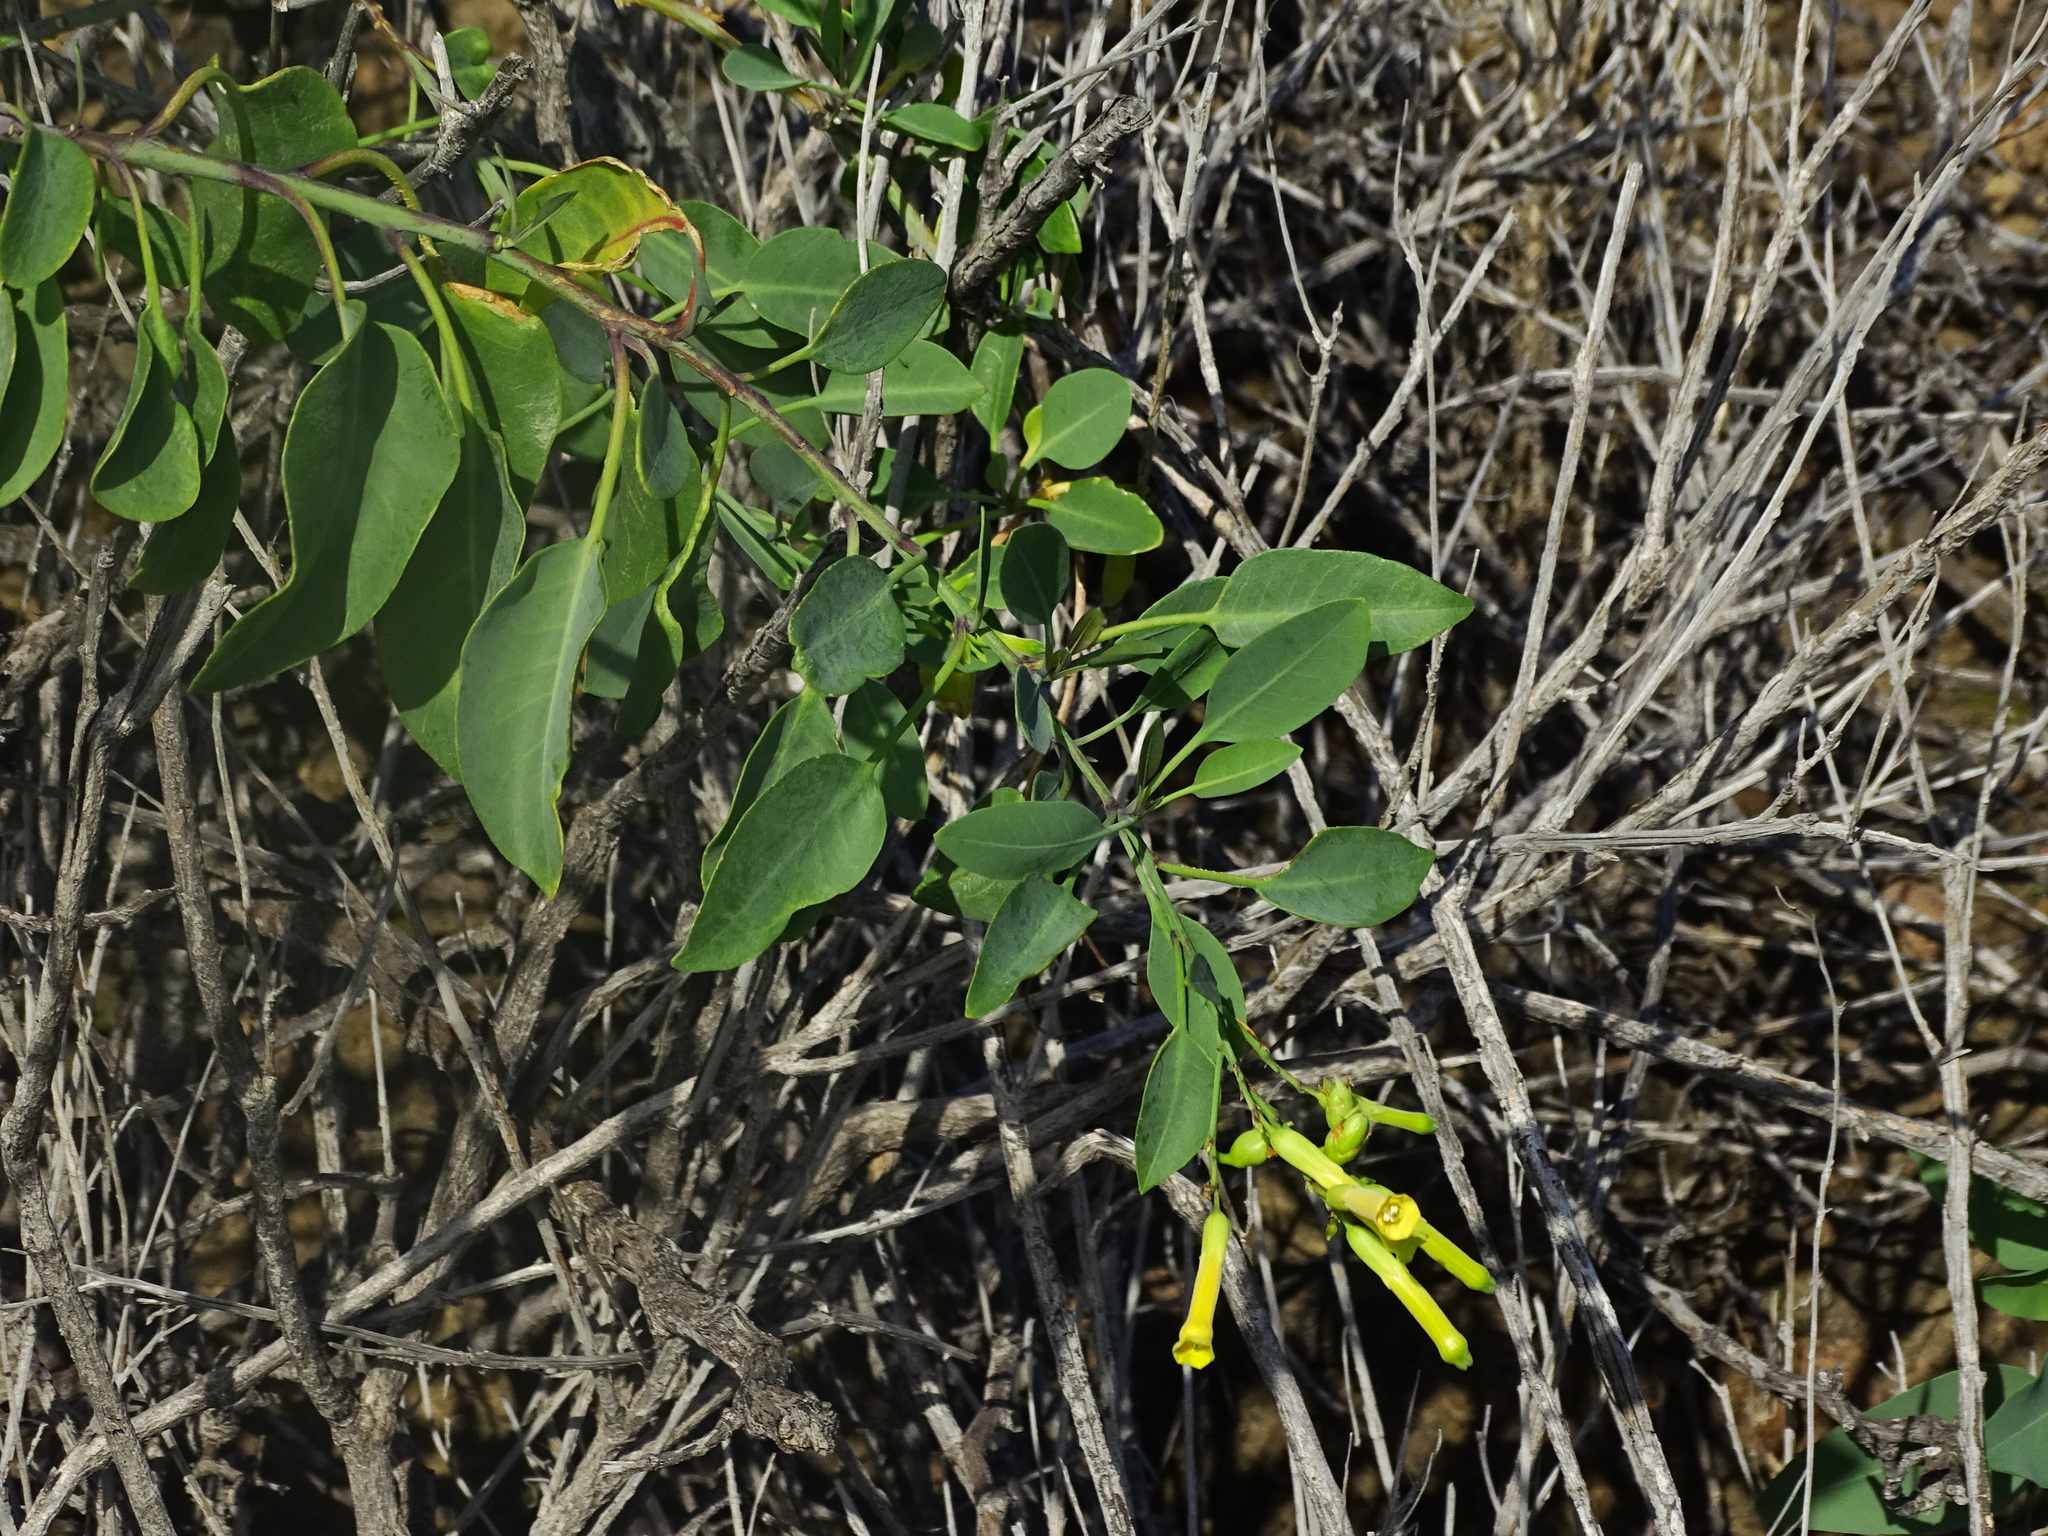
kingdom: Plantae
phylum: Tracheophyta
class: Magnoliopsida
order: Solanales
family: Solanaceae
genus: Nicotiana
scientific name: Nicotiana glauca
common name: Tree tobacco
